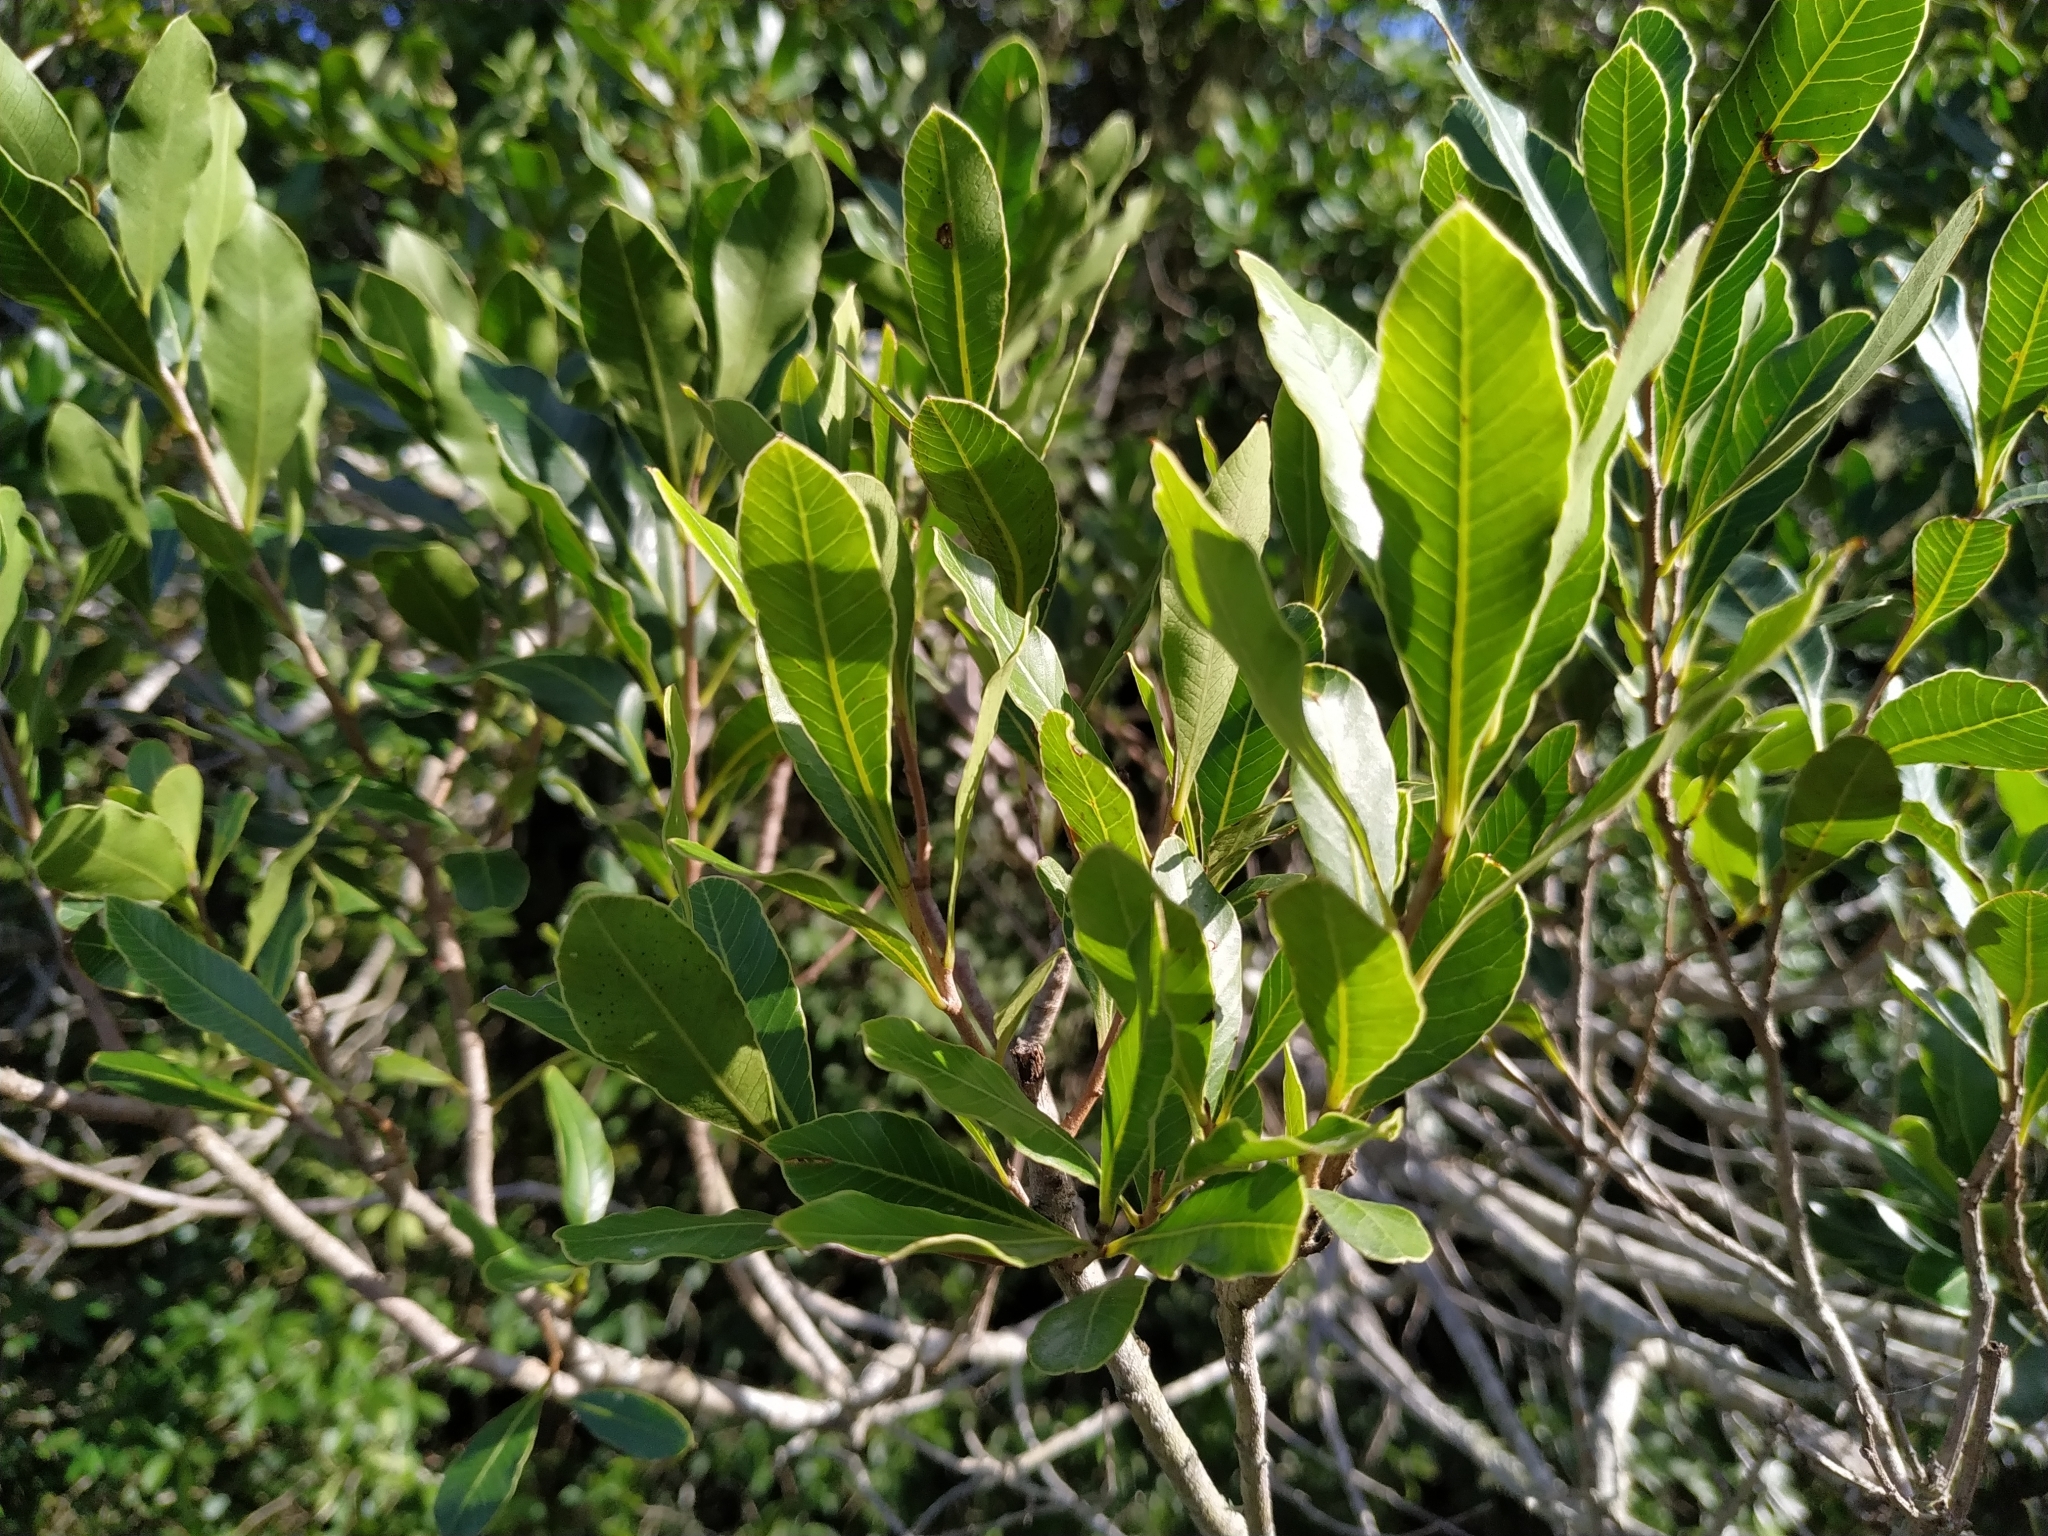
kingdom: Plantae
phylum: Tracheophyta
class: Magnoliopsida
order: Sapindales
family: Anacardiaceae
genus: Lithraea
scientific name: Lithraea brasiliensis
